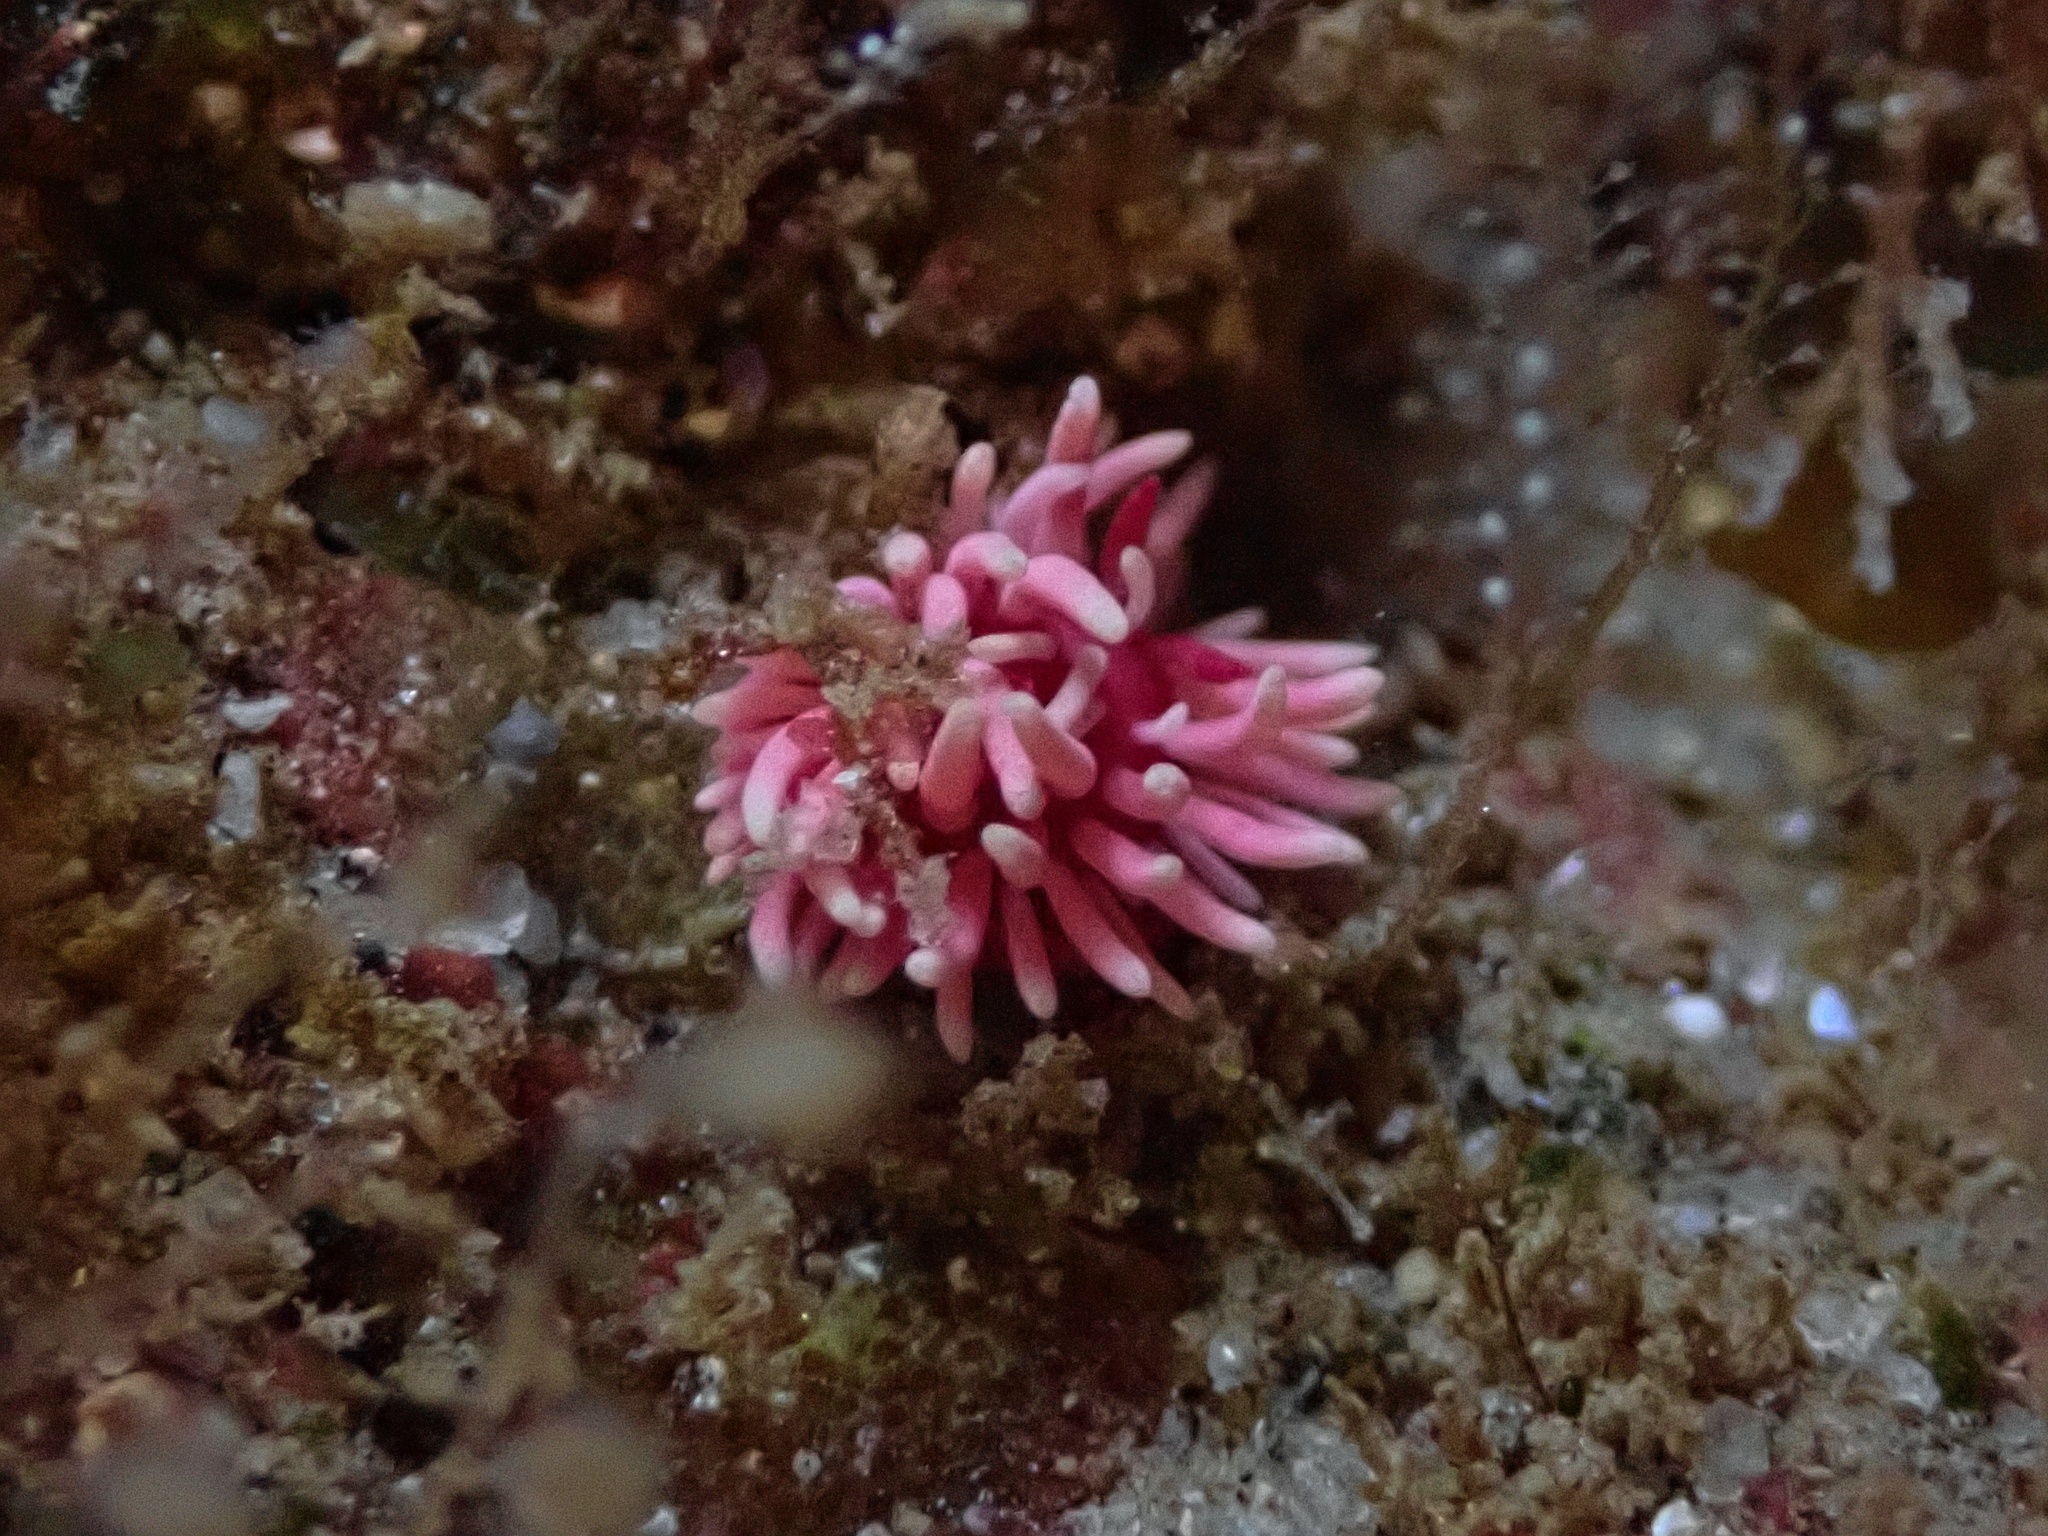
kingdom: Animalia
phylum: Mollusca
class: Gastropoda
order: Nudibranchia
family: Goniodorididae
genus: Okenia
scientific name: Okenia
